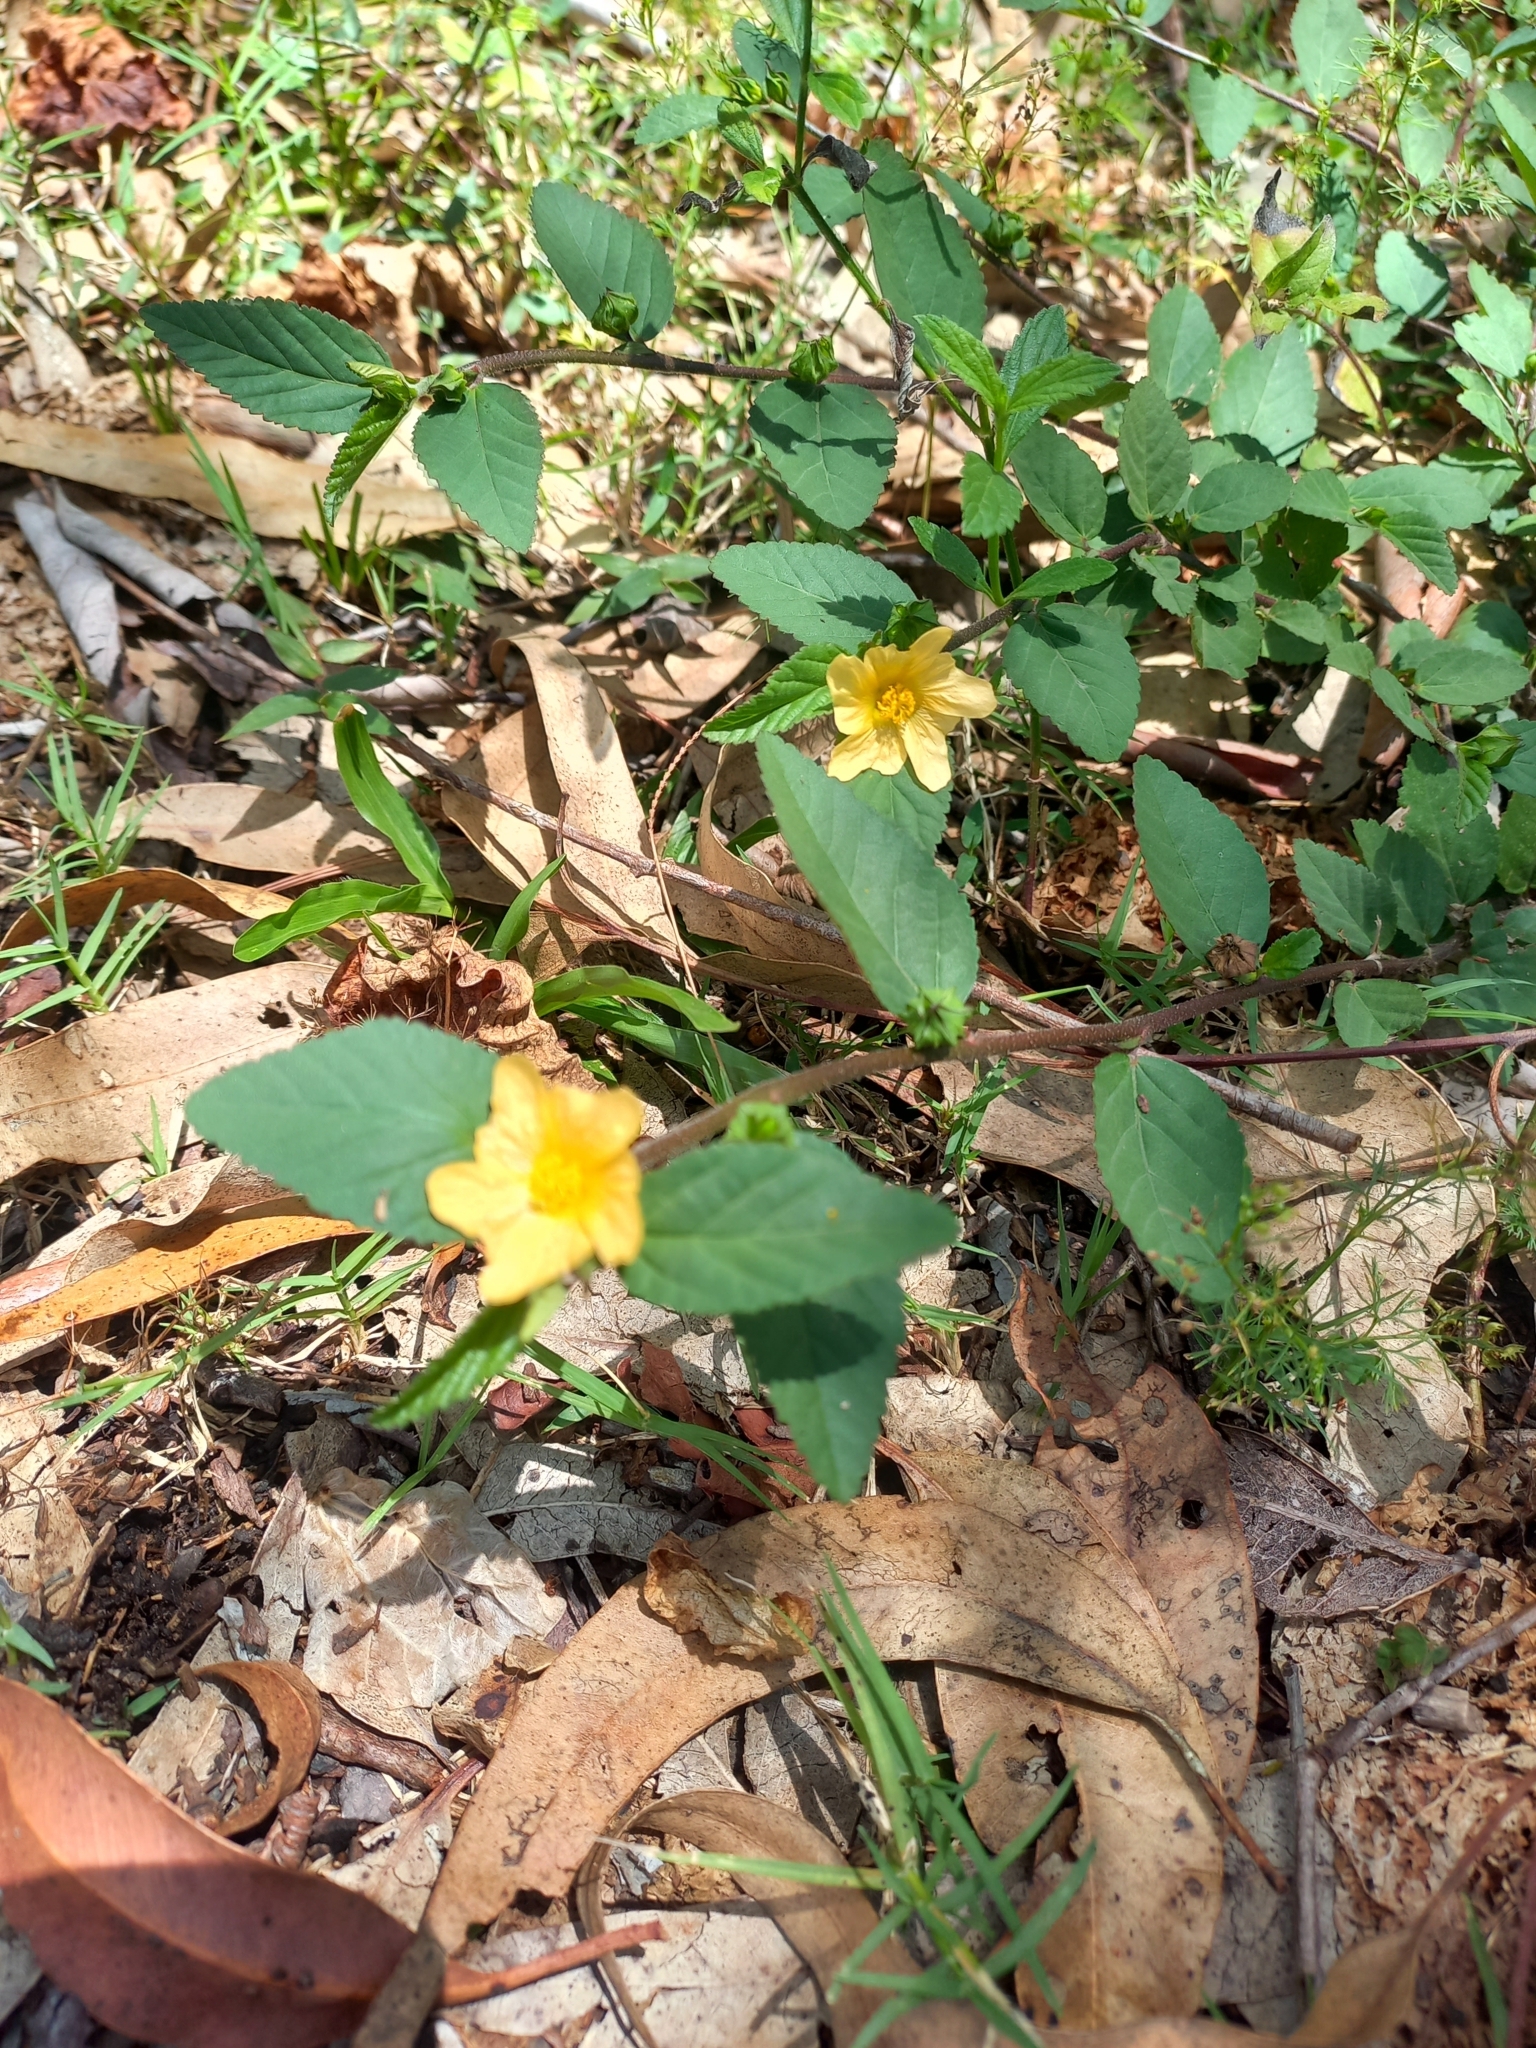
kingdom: Plantae
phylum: Tracheophyta
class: Magnoliopsida
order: Malvales
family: Malvaceae
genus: Sida
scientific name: Sida rhombifolia
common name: Queensland-hemp
